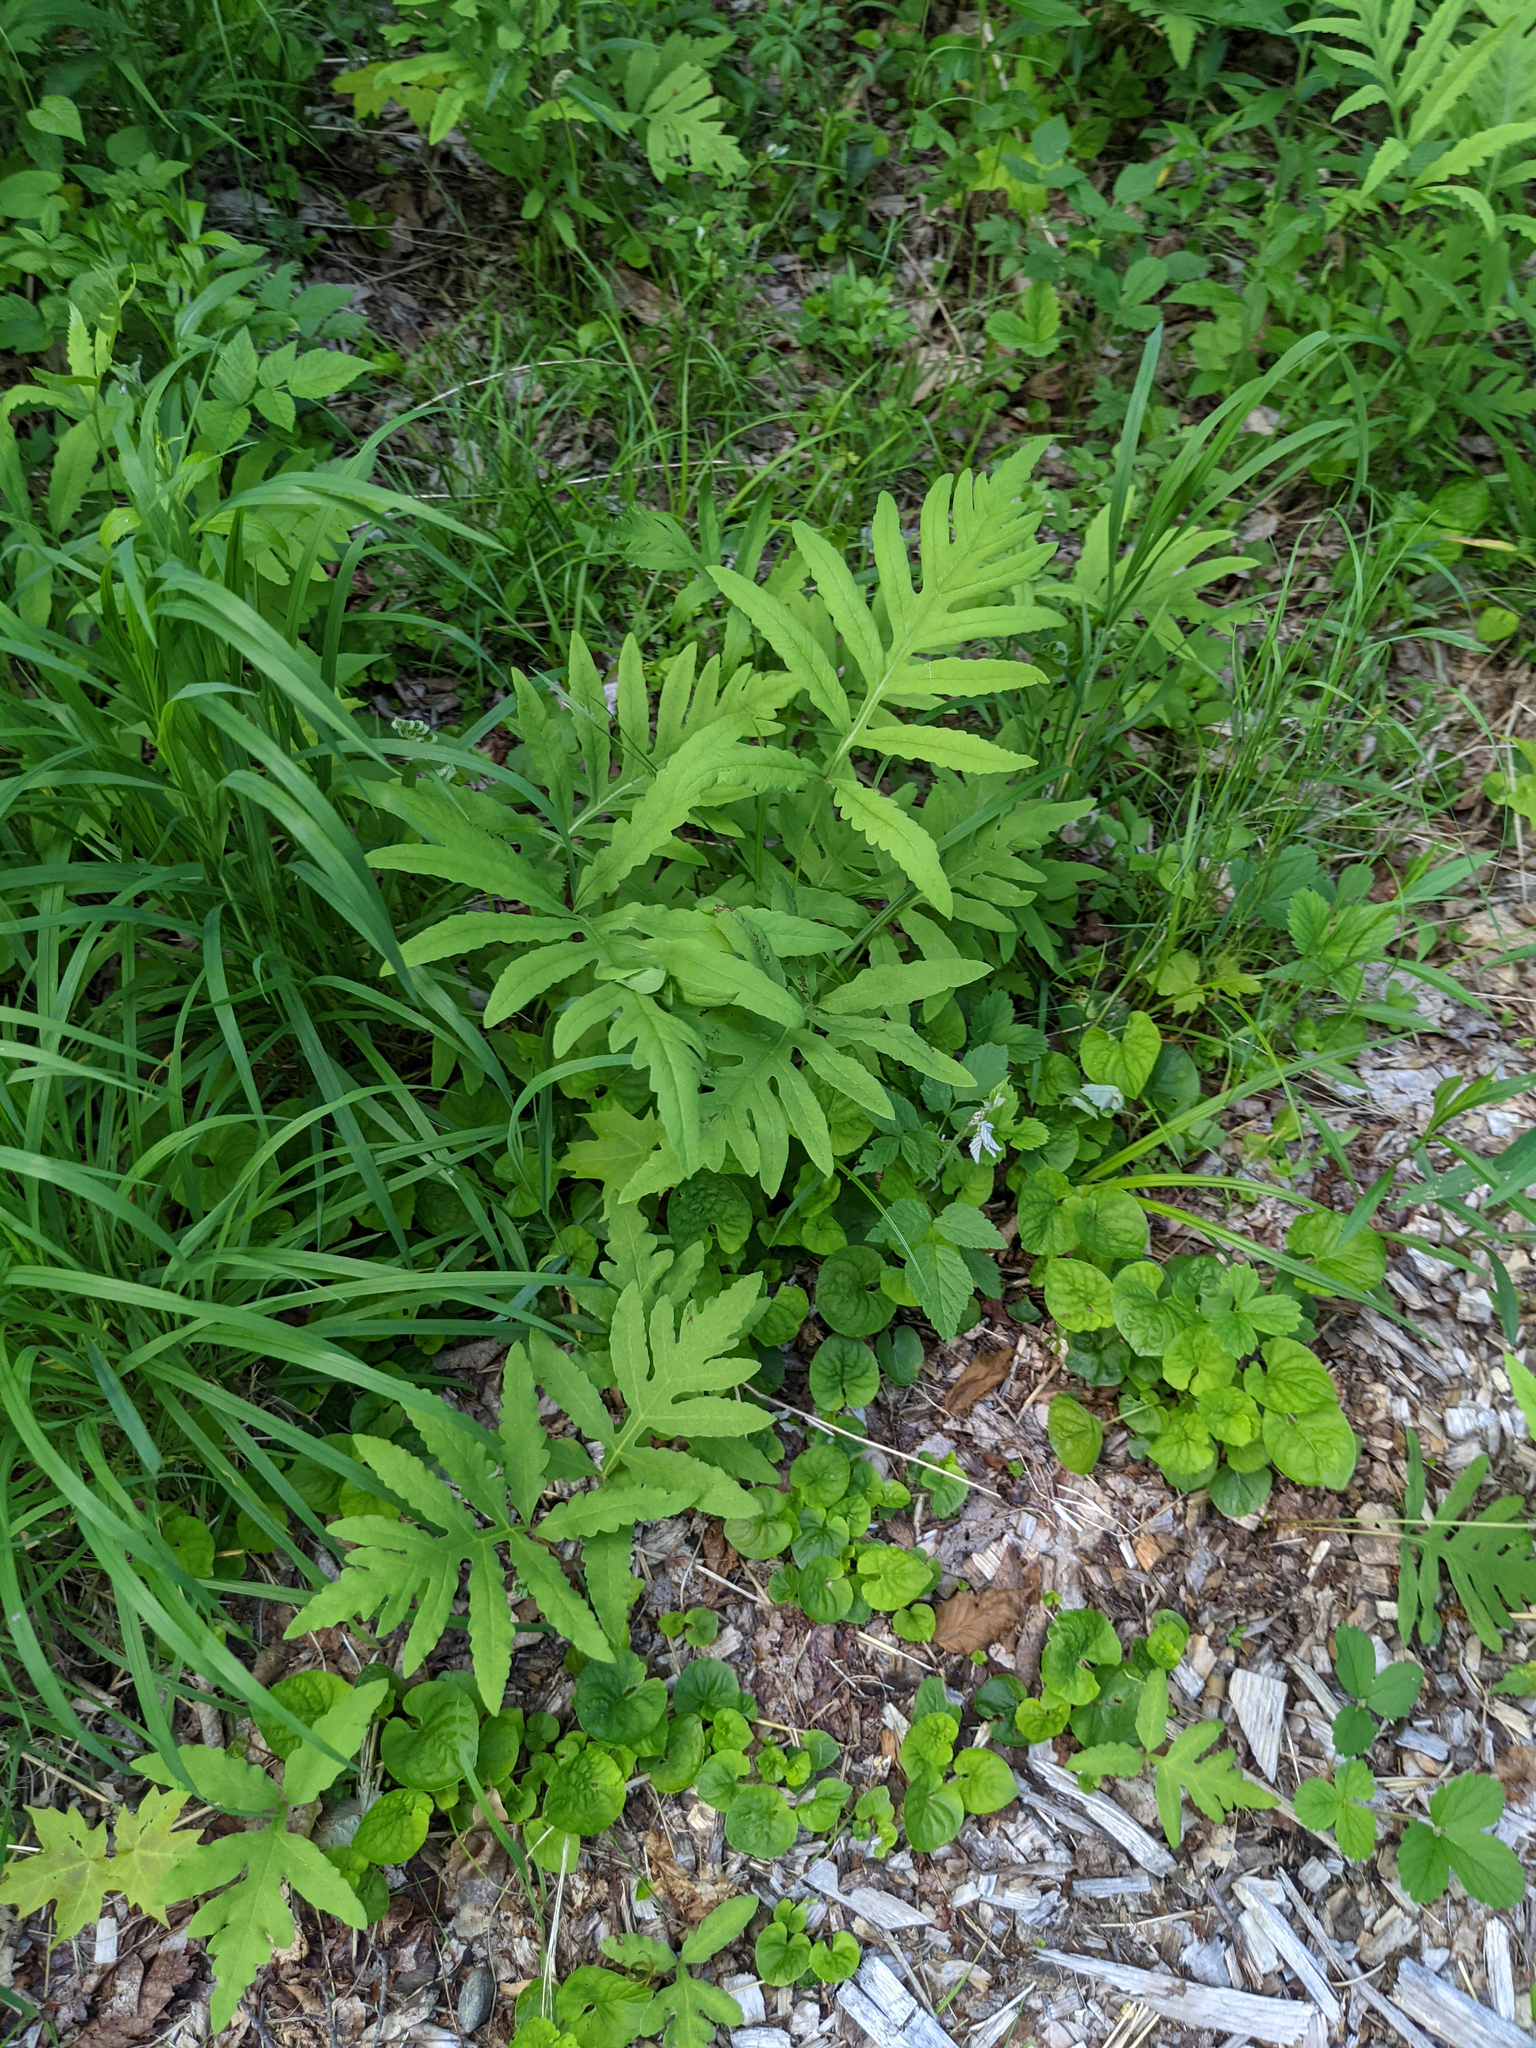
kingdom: Plantae
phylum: Tracheophyta
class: Polypodiopsida
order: Polypodiales
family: Onocleaceae
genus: Onoclea
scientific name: Onoclea sensibilis
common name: Sensitive fern
